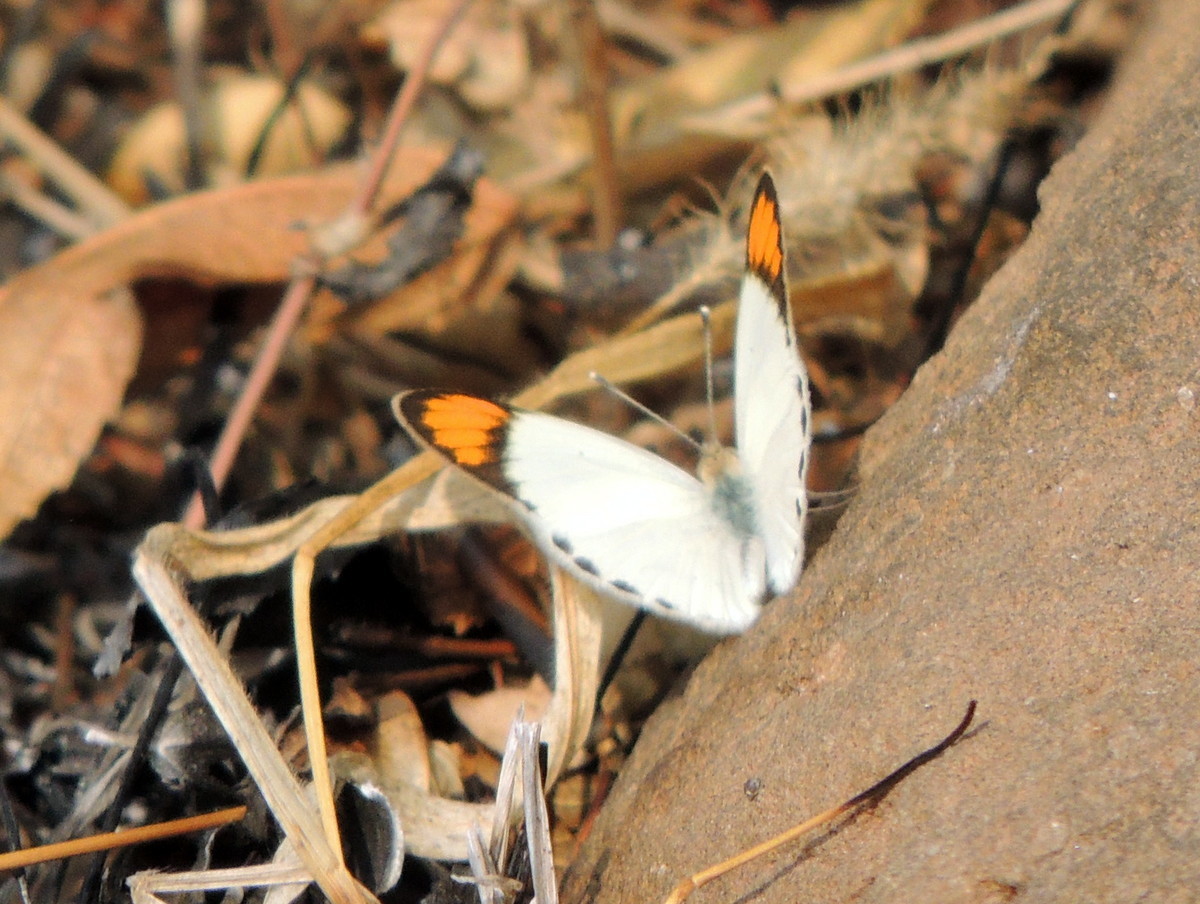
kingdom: Animalia
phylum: Arthropoda
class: Insecta
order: Lepidoptera
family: Pieridae
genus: Ixias
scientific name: Ixias marianne
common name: White orange tip
